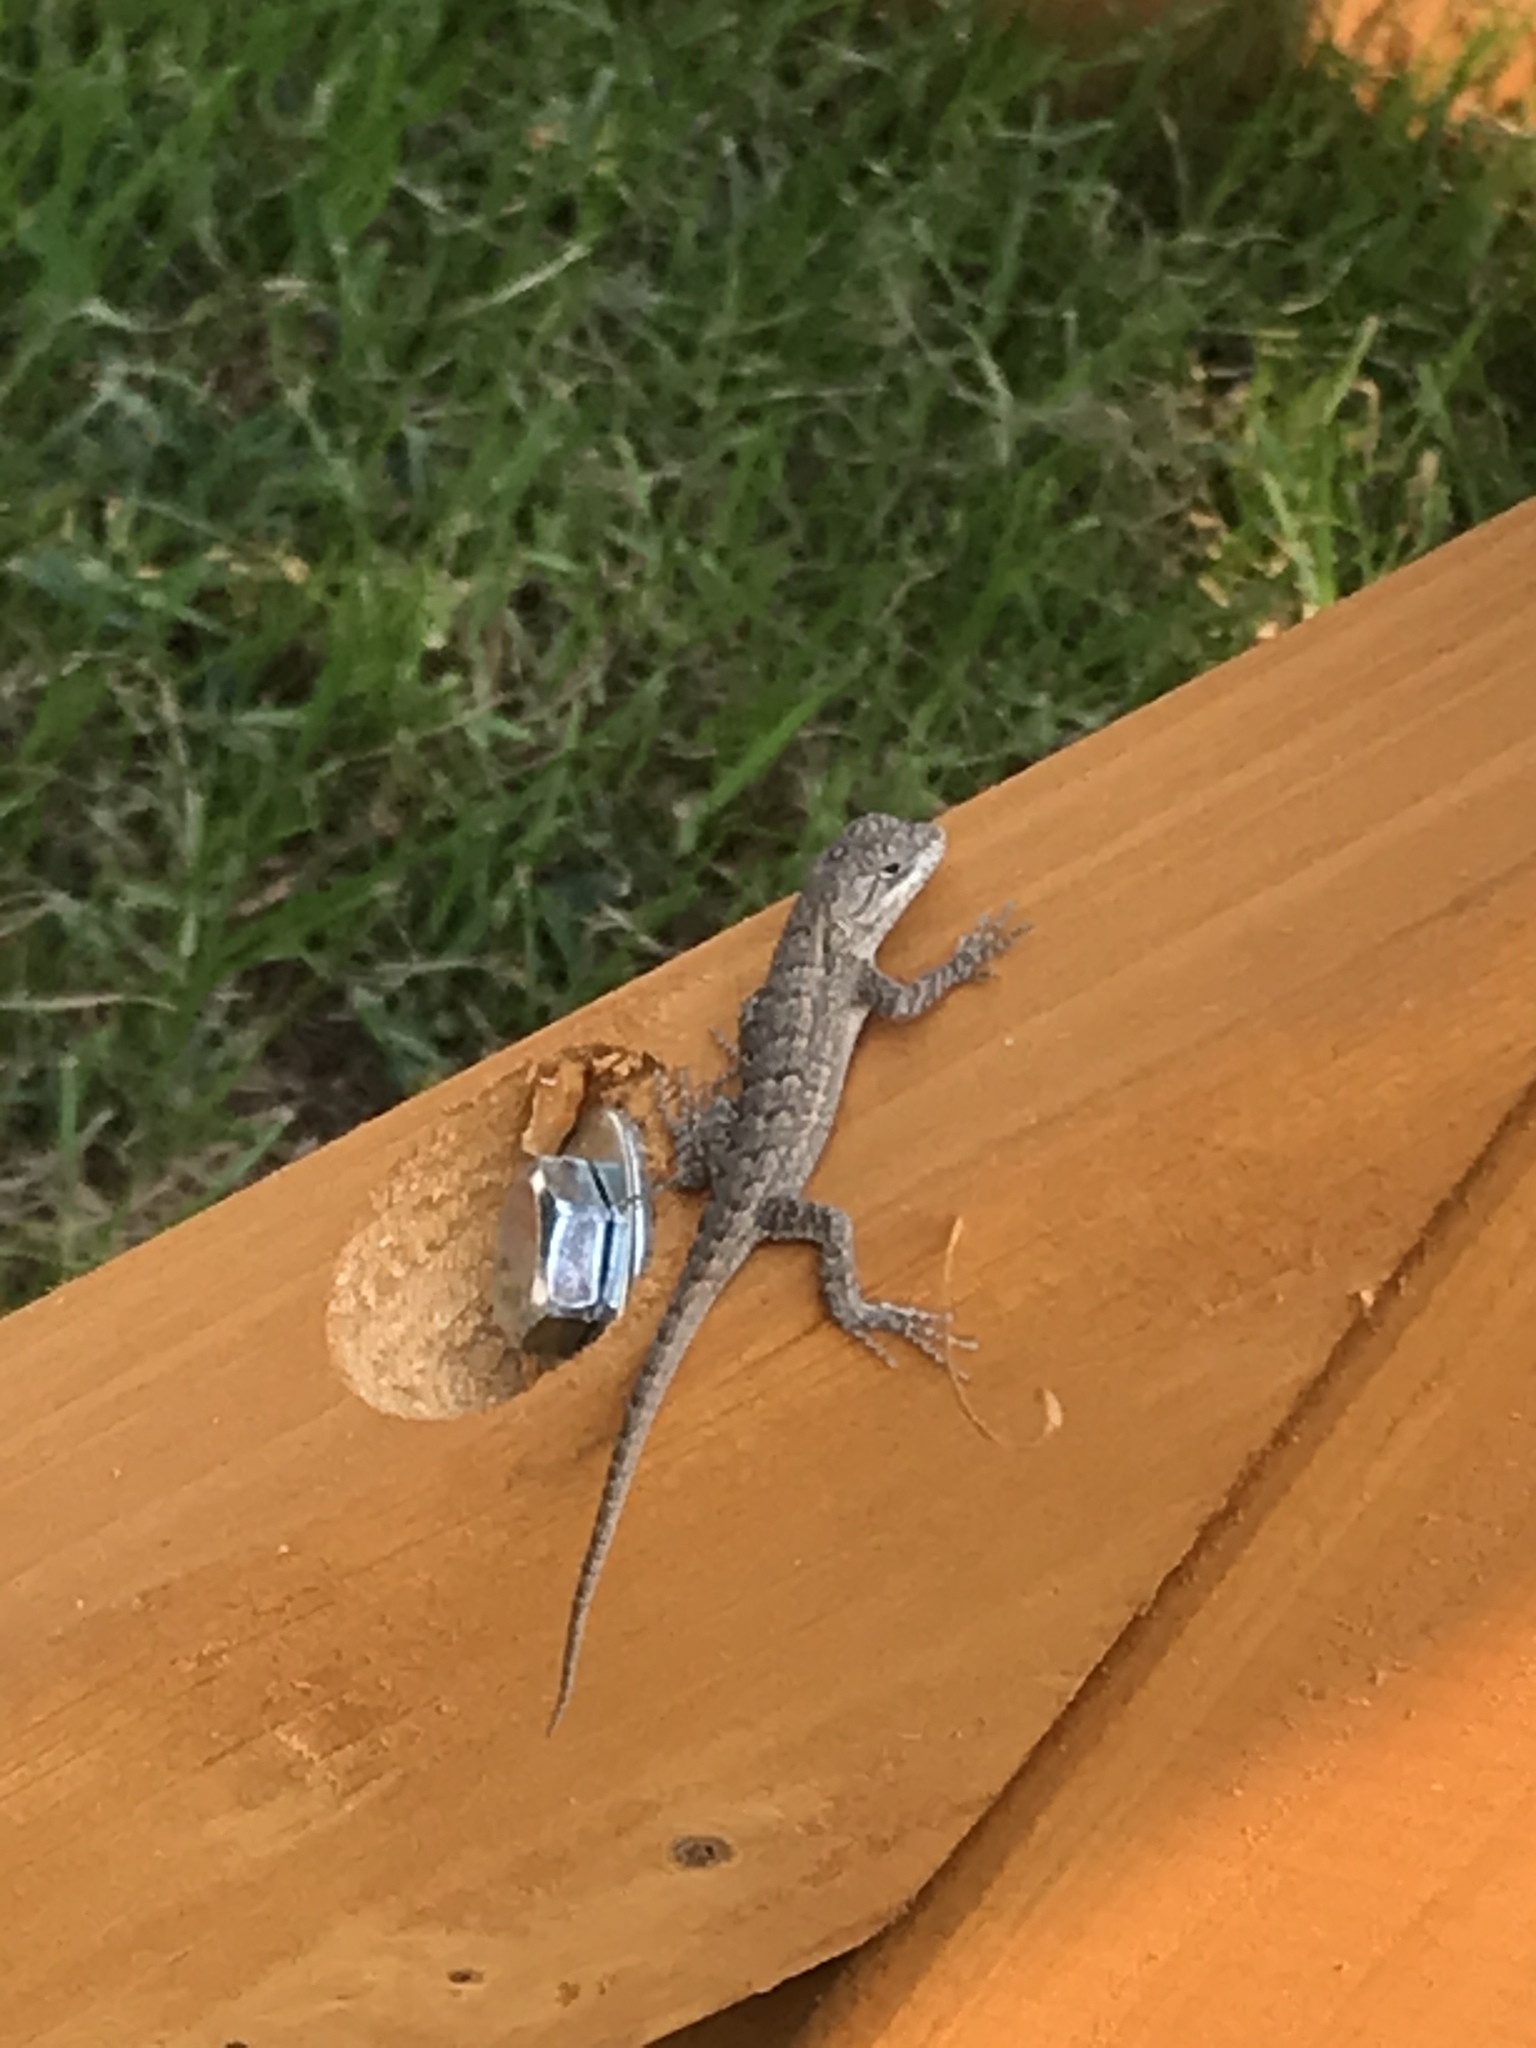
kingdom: Animalia
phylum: Chordata
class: Squamata
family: Phrynosomatidae
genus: Sceloporus
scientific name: Sceloporus occidentalis
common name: Western fence lizard
